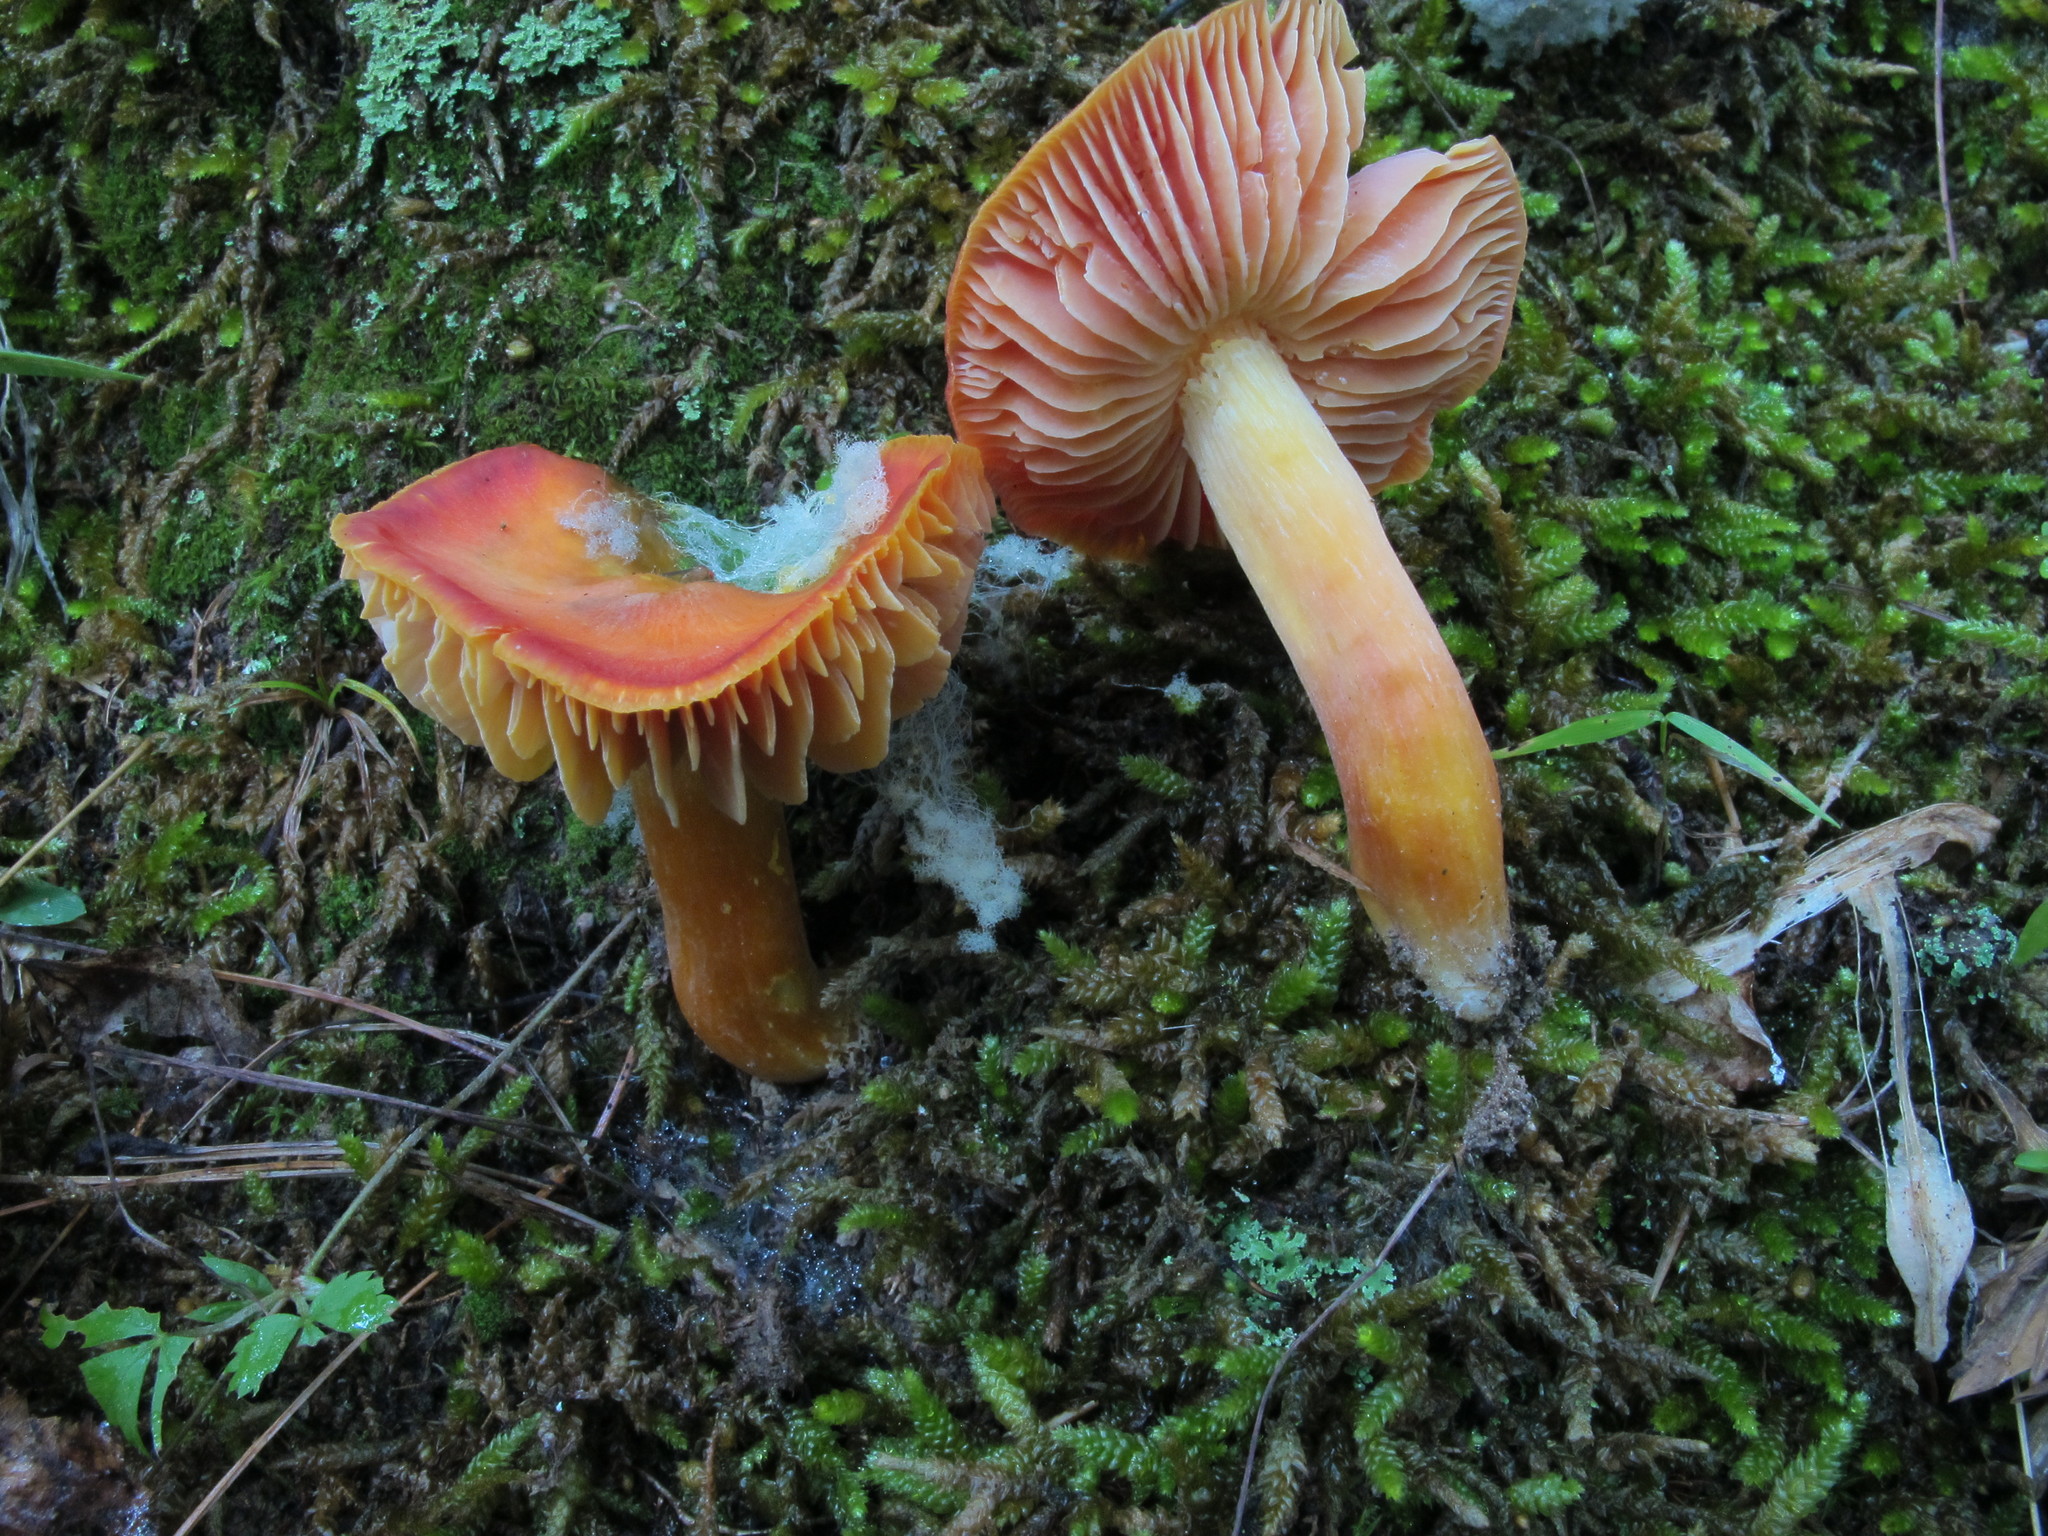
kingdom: Fungi
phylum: Basidiomycota
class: Agaricomycetes
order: Agaricales
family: Hygrophoraceae
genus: Hygrocybe
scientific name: Hygrocybe punicea
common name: Crimson waxcap
